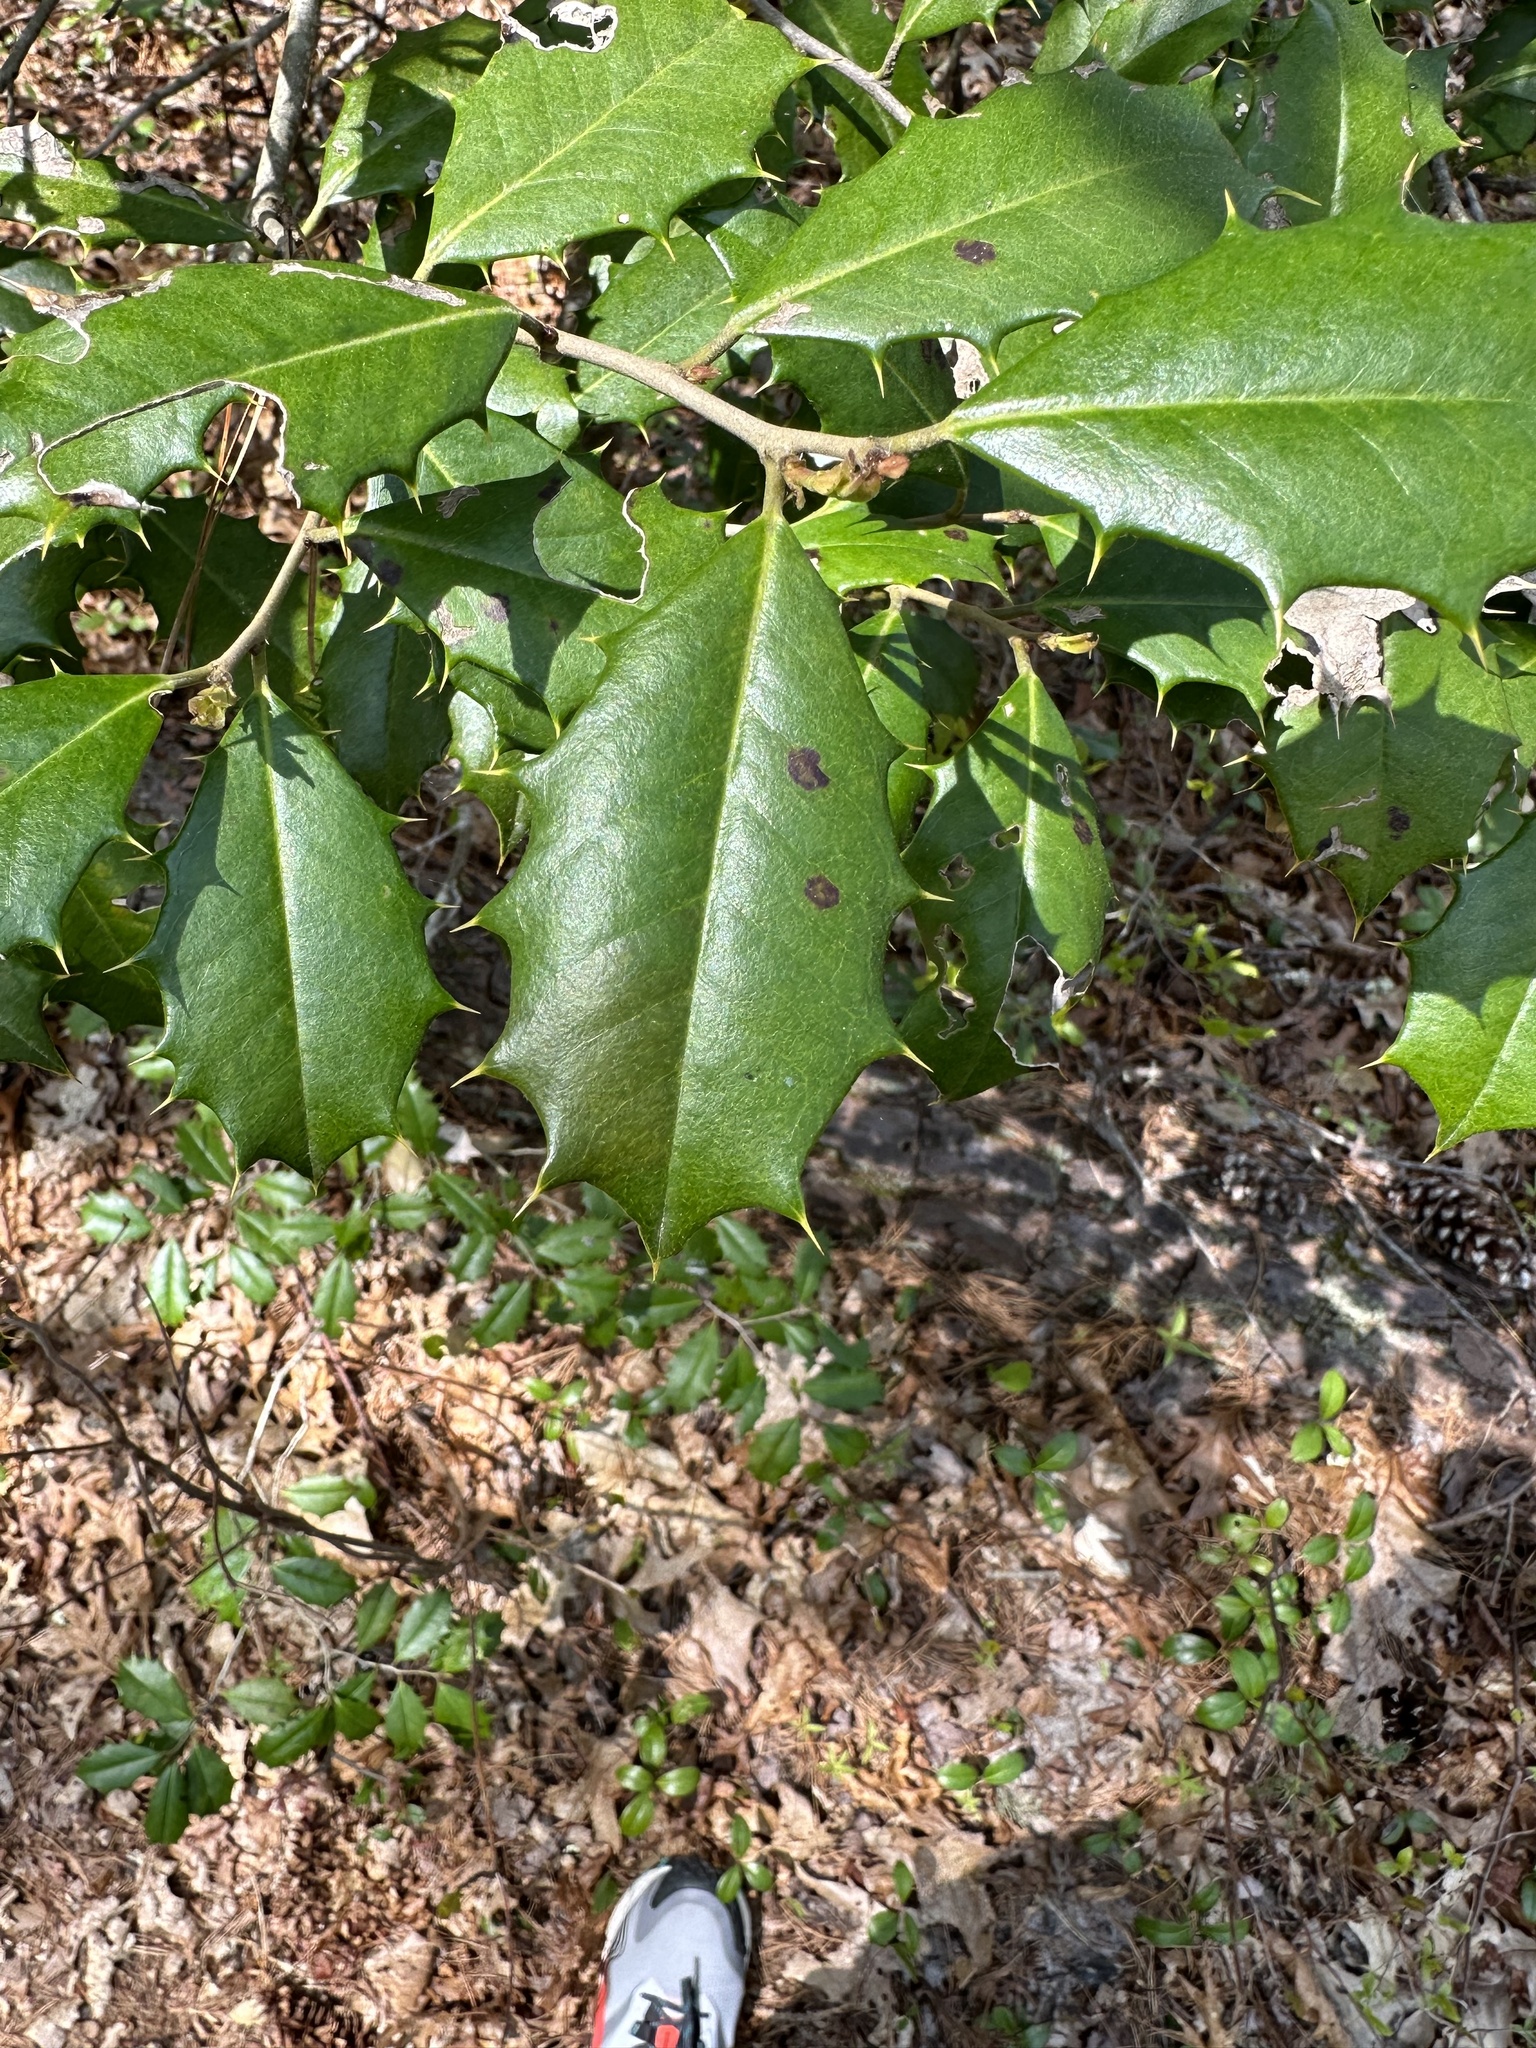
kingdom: Plantae
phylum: Tracheophyta
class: Magnoliopsida
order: Aquifoliales
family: Aquifoliaceae
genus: Ilex
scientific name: Ilex opaca
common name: American holly
